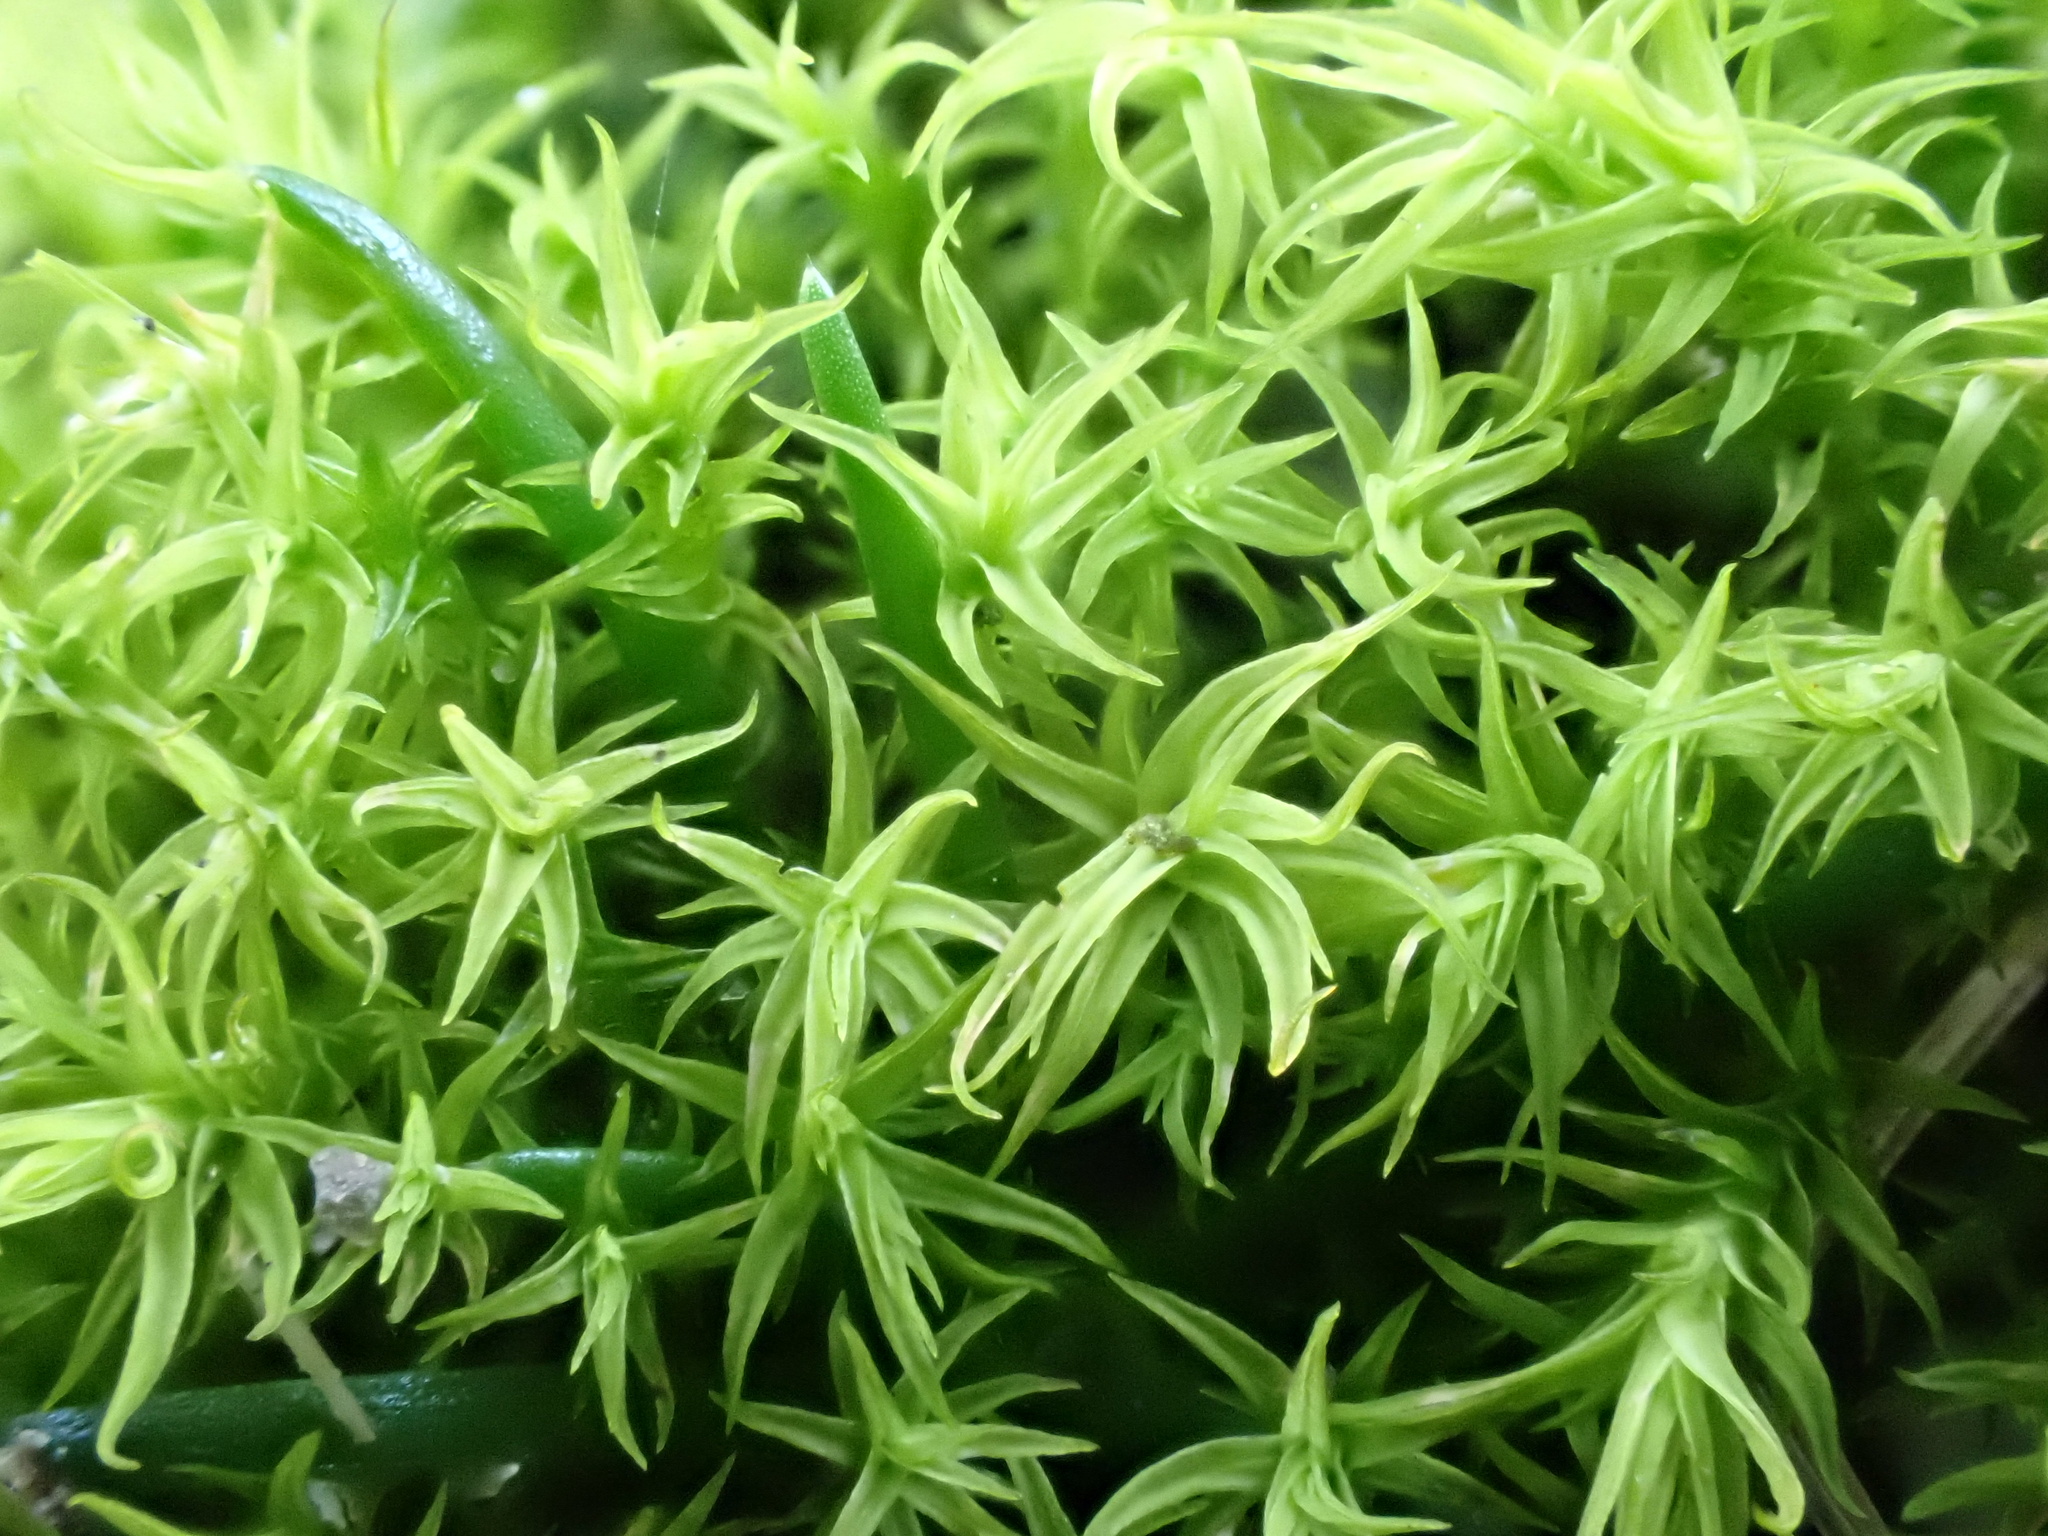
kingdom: Plantae
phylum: Bryophyta
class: Bryopsida
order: Pottiales
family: Pottiaceae
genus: Vinealobryum
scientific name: Vinealobryum vineale
